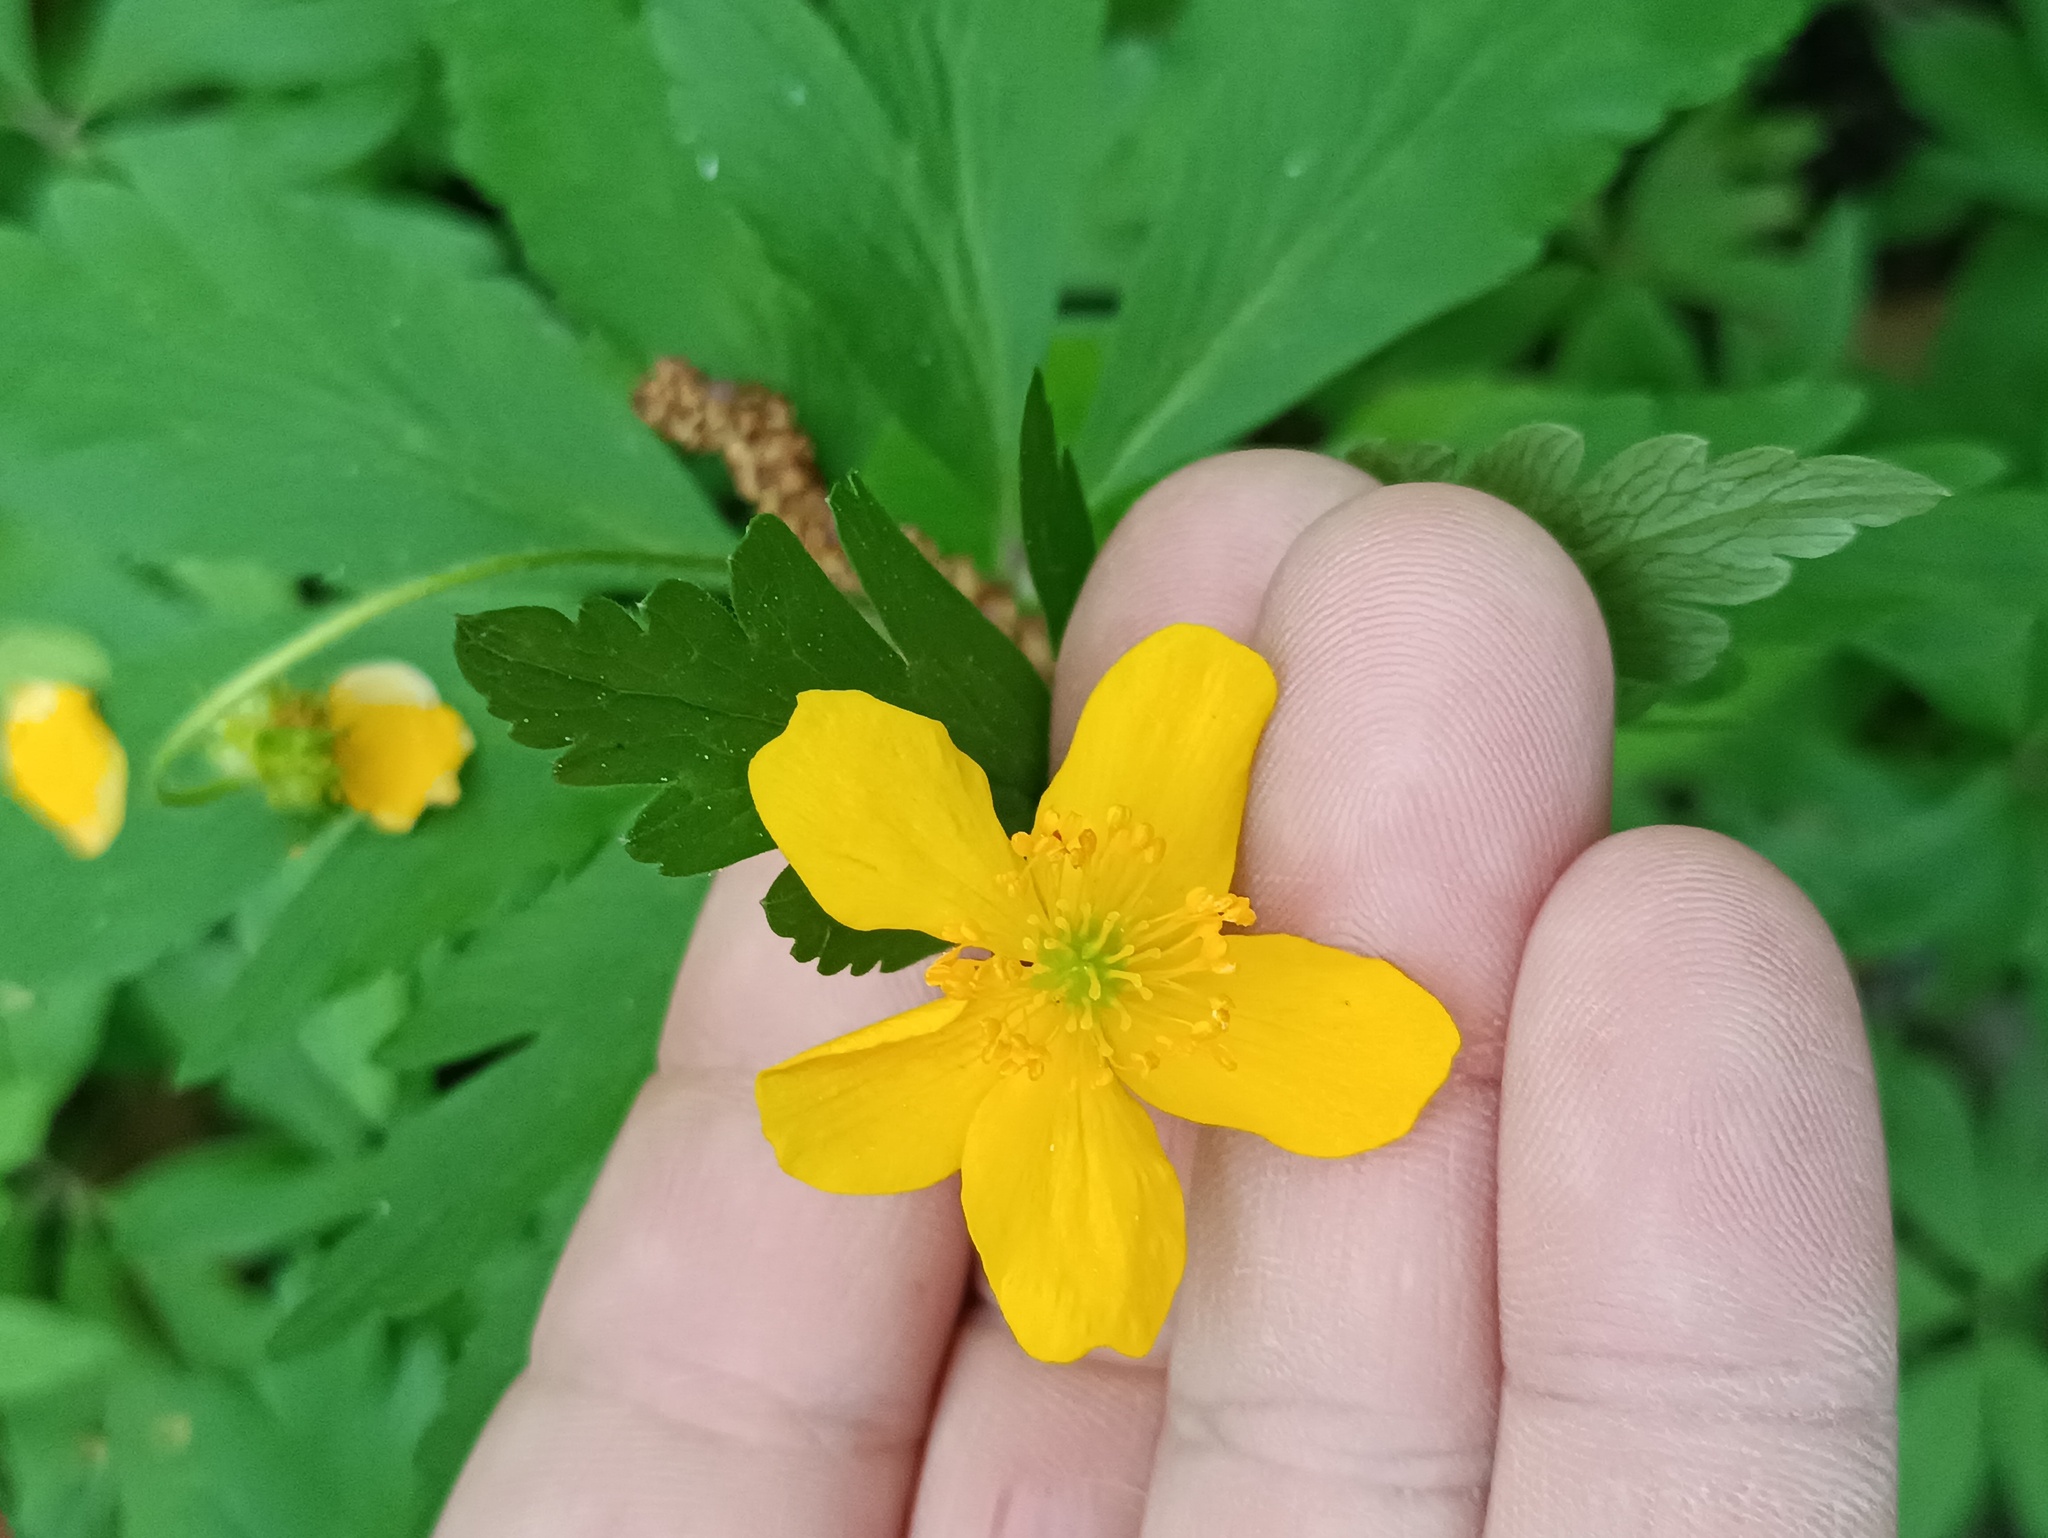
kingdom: Plantae
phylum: Tracheophyta
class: Magnoliopsida
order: Ranunculales
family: Ranunculaceae
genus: Anemone
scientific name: Anemone ranunculoides
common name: Yellow anemone
